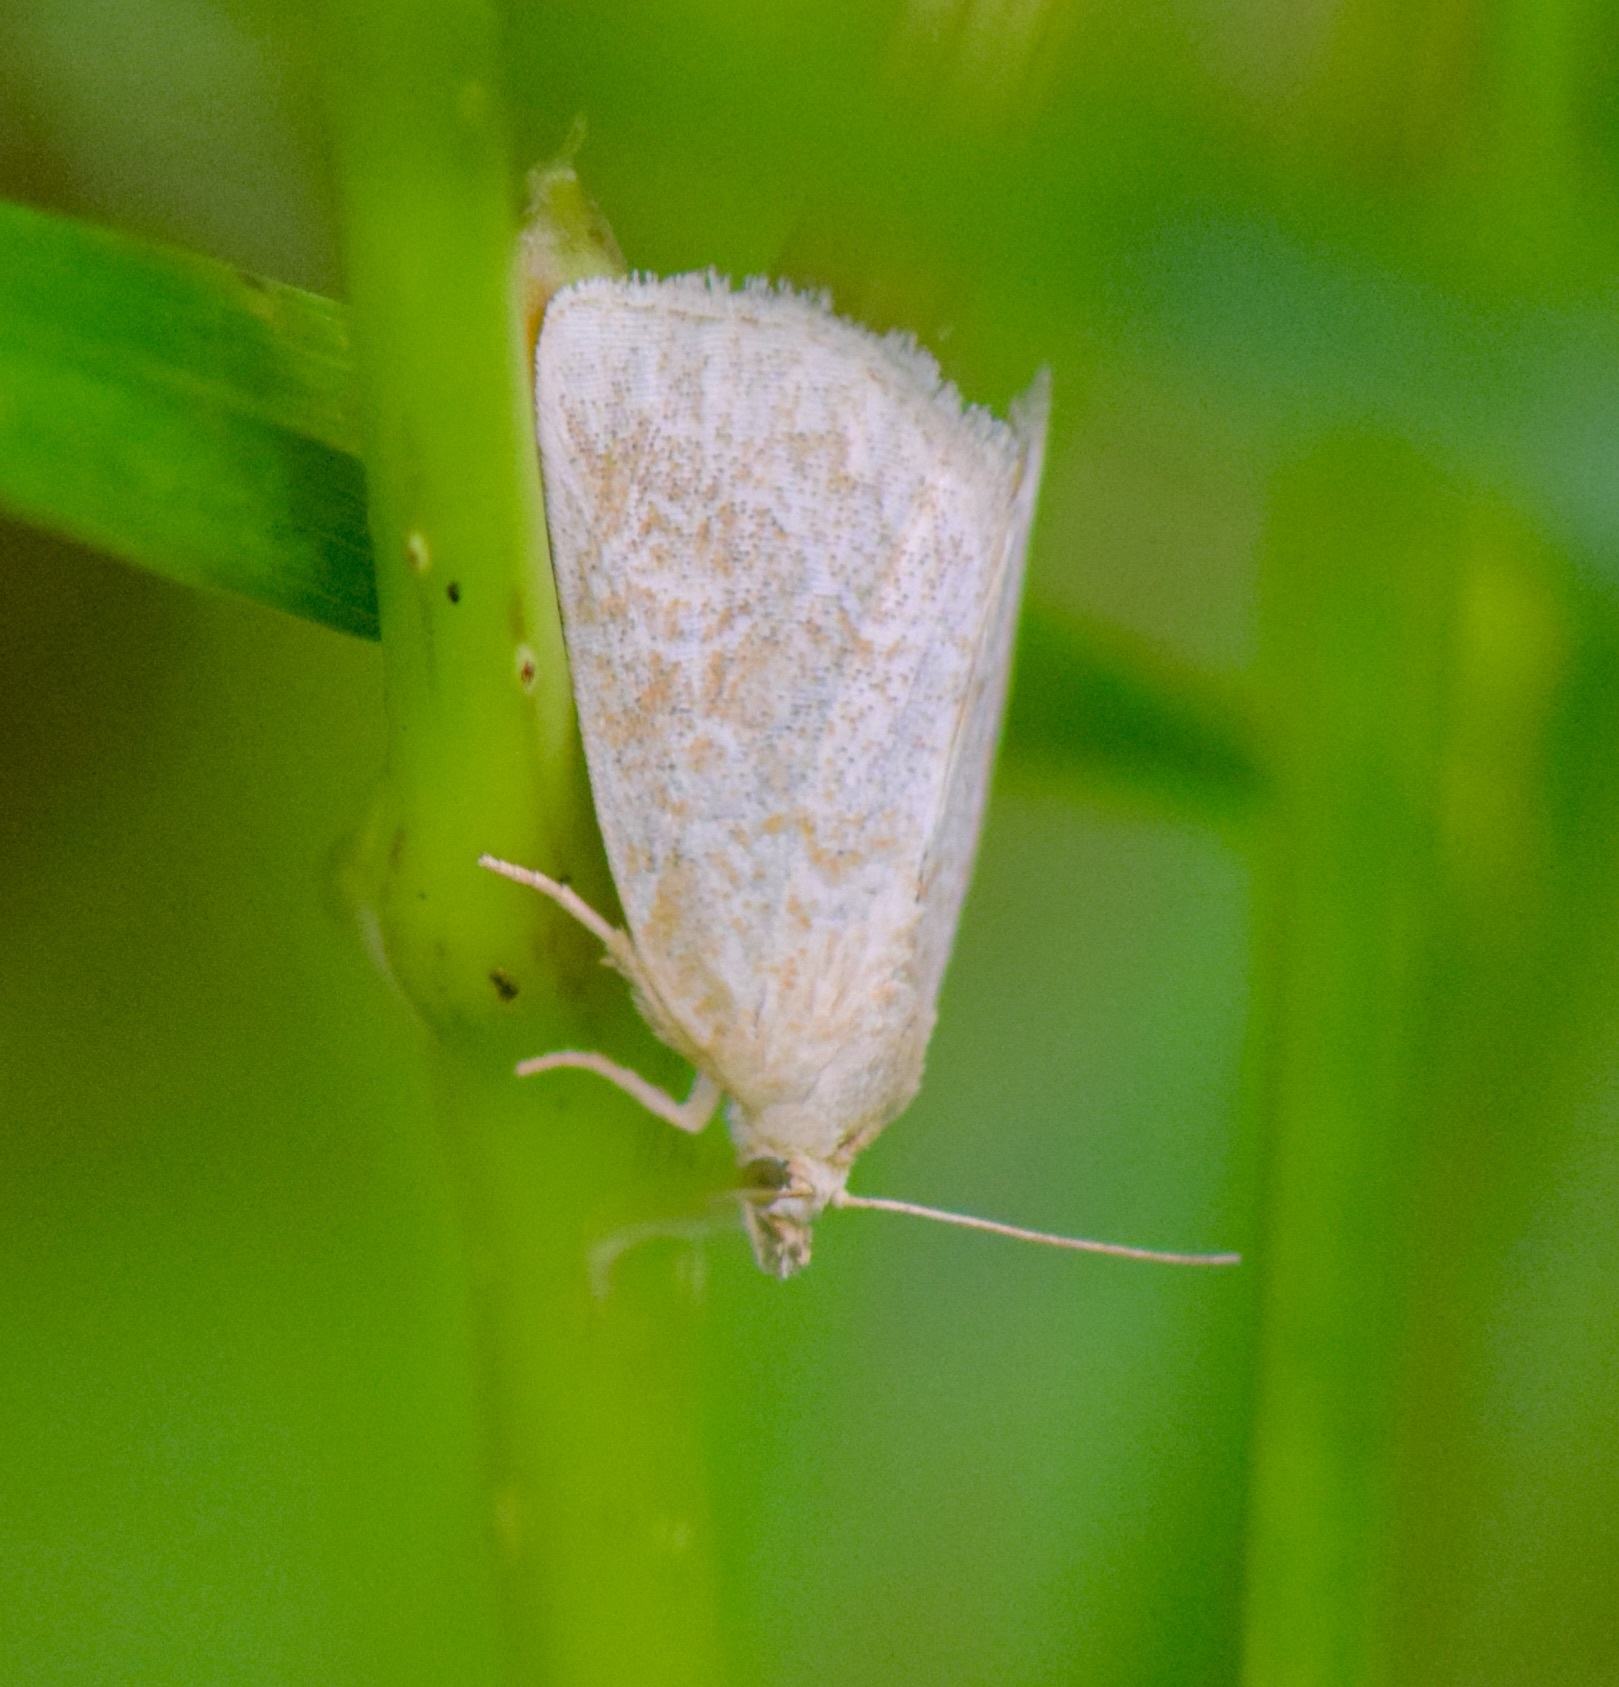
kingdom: Animalia
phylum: Arthropoda
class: Insecta
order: Lepidoptera
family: Noctuidae
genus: Protodeltote
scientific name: Protodeltote albidula
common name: Pale glyph
